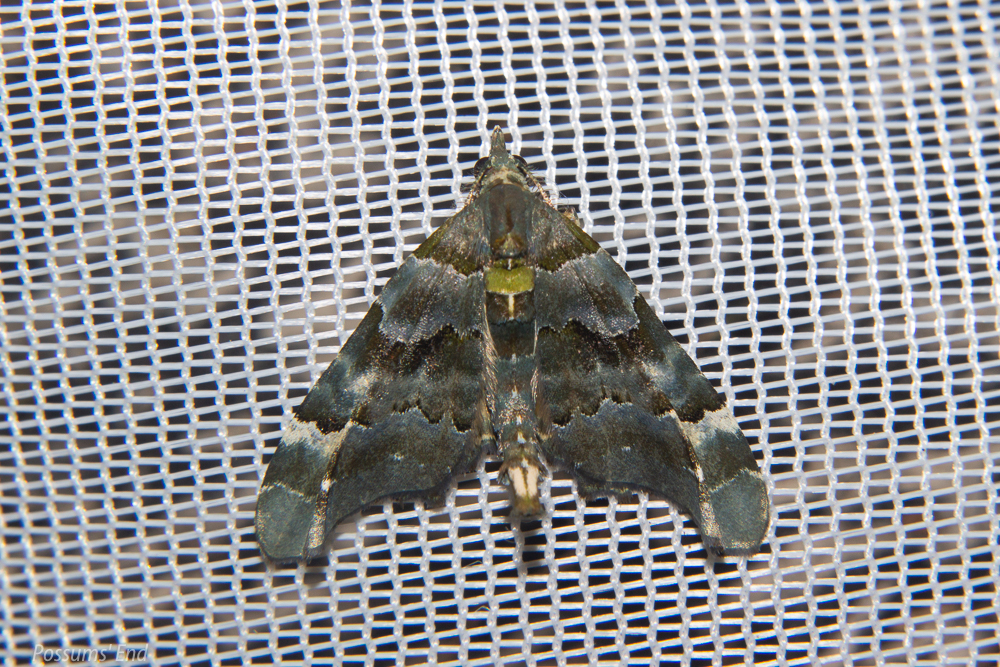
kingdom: Animalia
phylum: Arthropoda
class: Insecta
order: Lepidoptera
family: Geometridae
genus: Elvia
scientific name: Elvia glaucata
